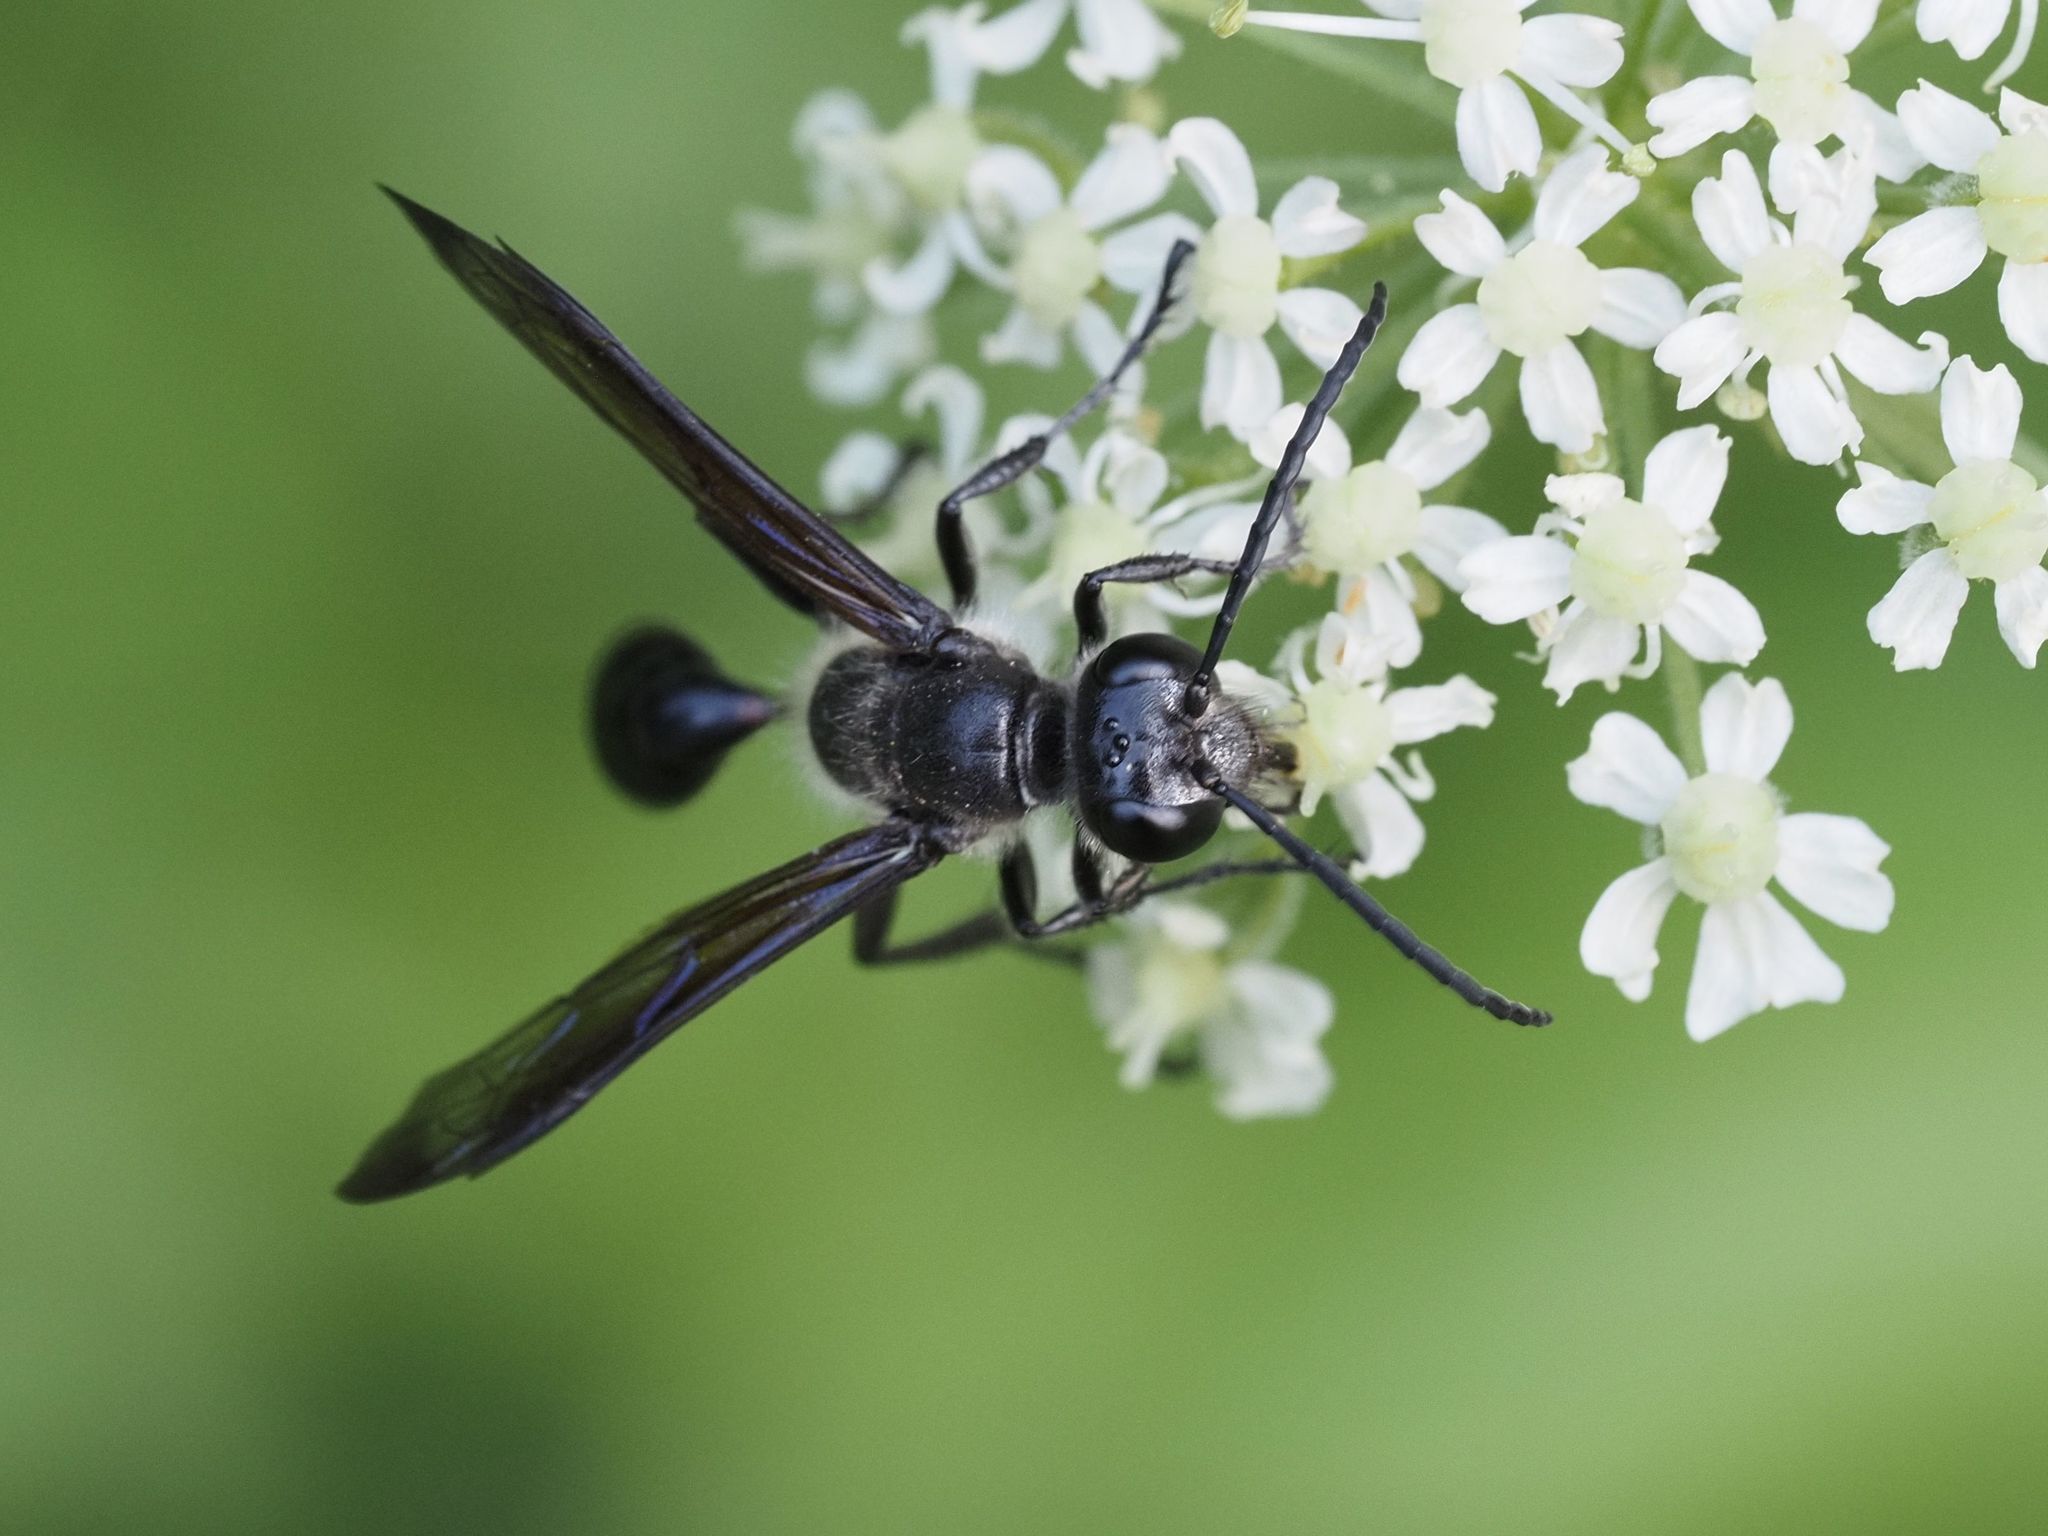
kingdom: Animalia
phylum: Arthropoda
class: Insecta
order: Hymenoptera
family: Sphecidae
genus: Isodontia
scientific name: Isodontia mexicana
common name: Mud dauber
